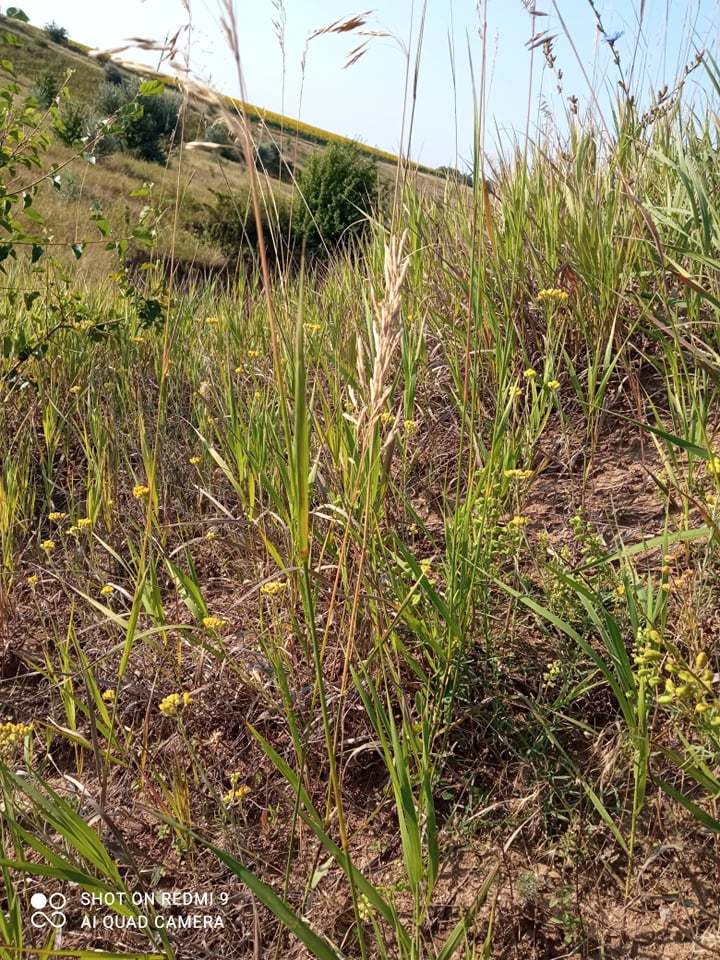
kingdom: Plantae
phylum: Tracheophyta
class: Liliopsida
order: Poales
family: Poaceae
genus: Bromus
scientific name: Bromus inermis
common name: Smooth brome
